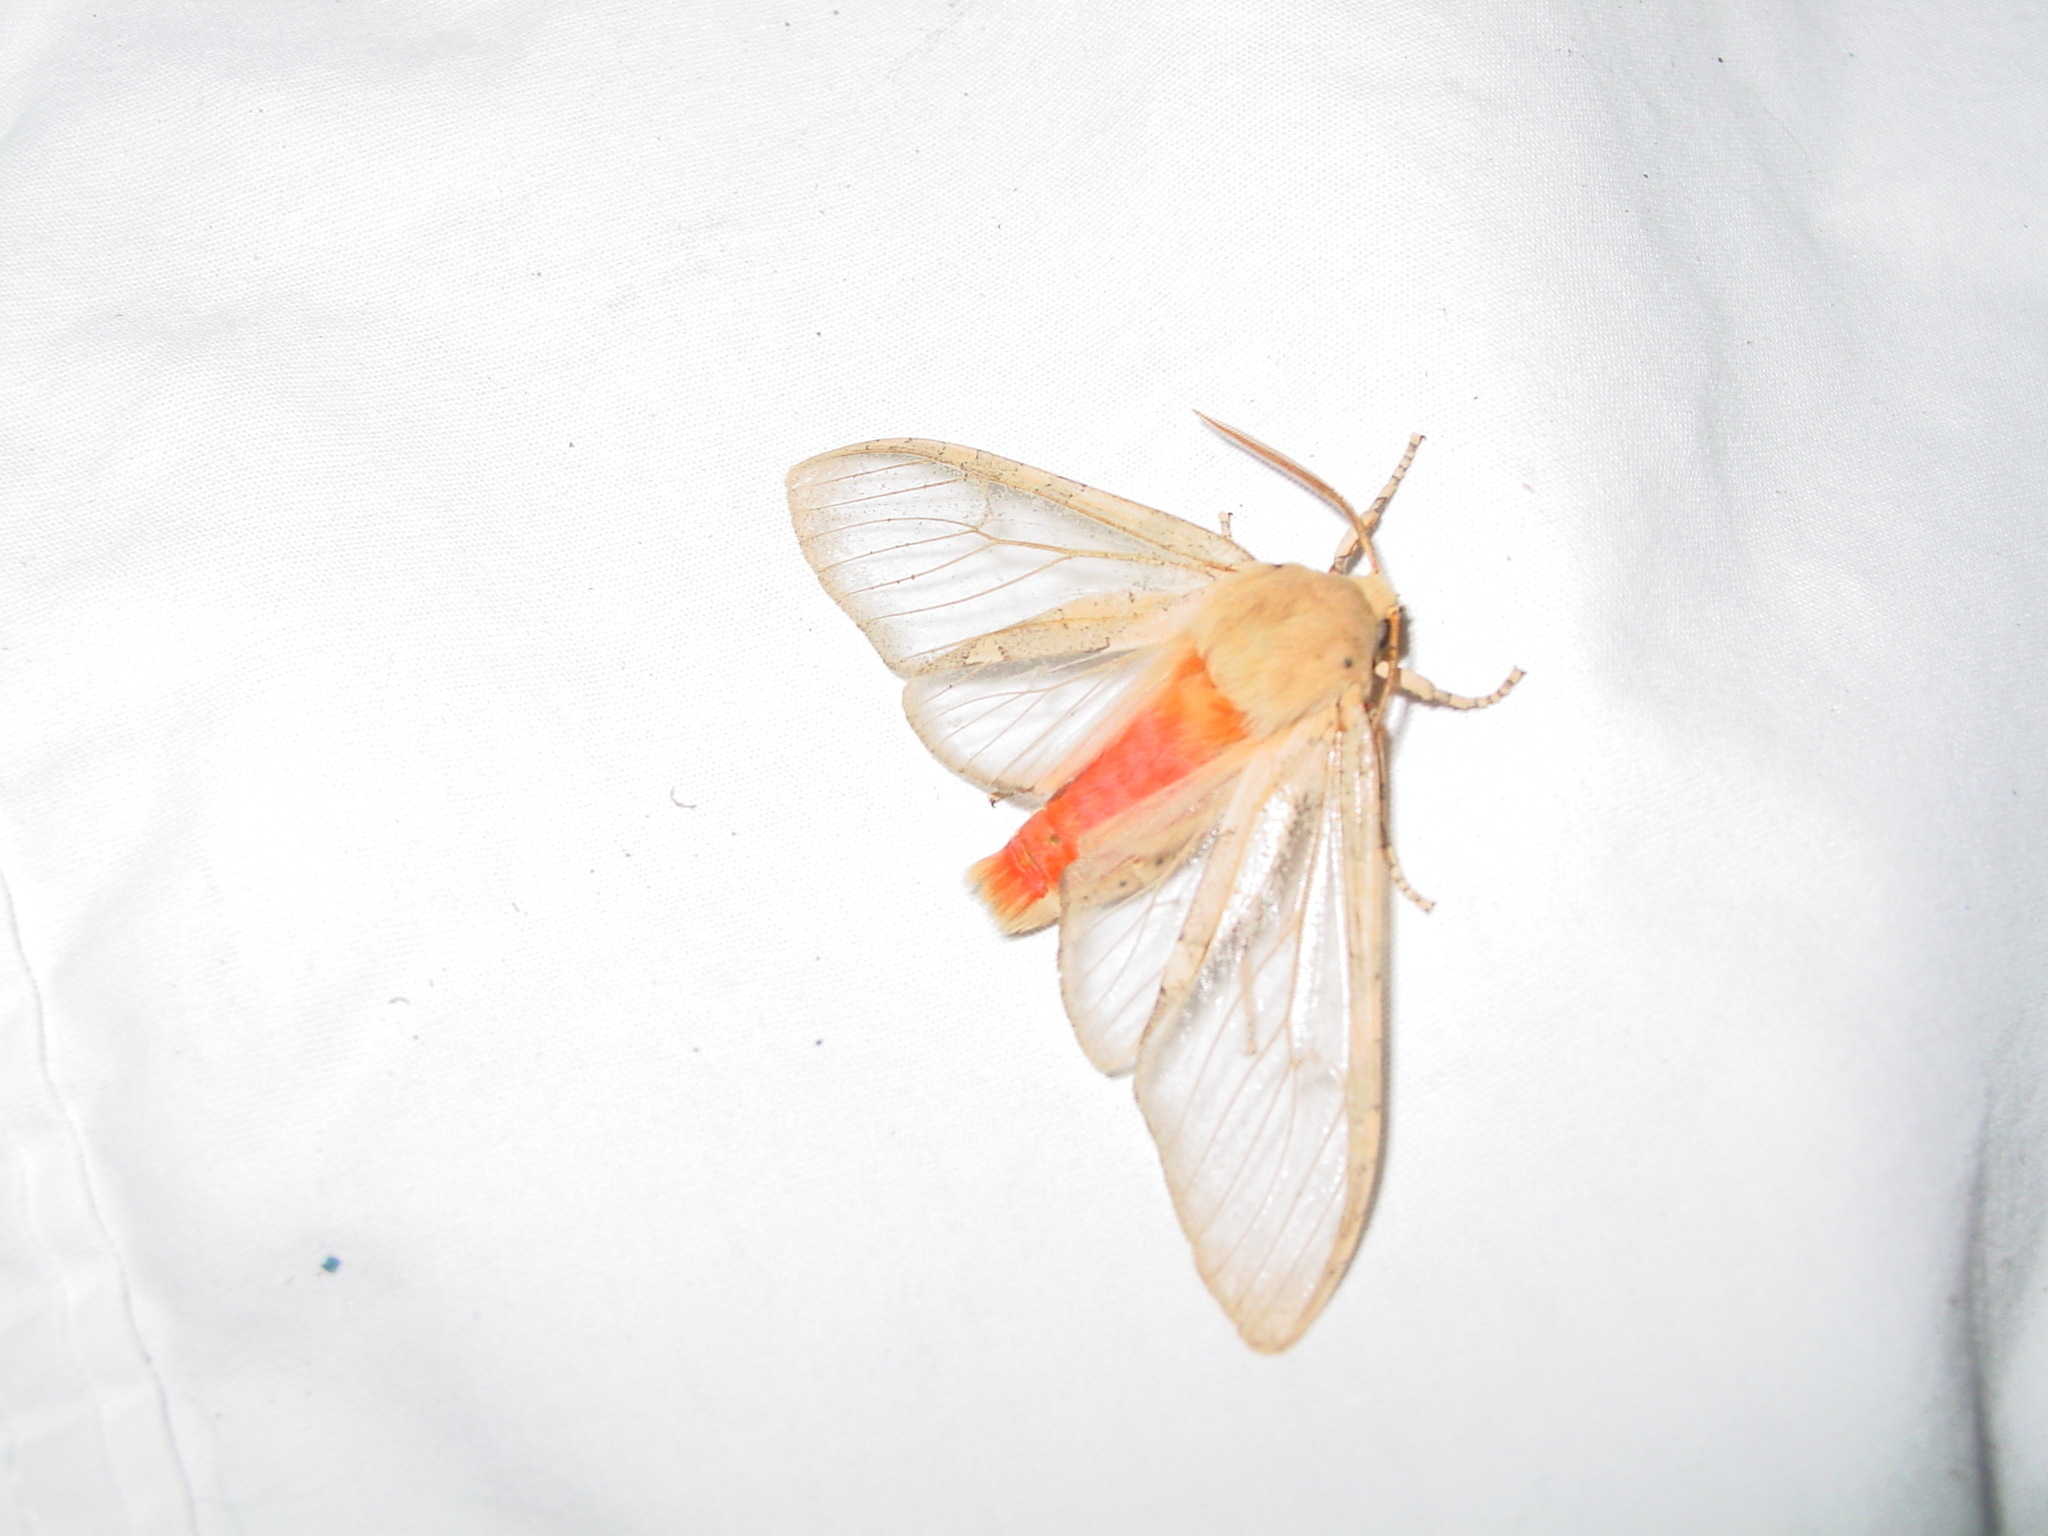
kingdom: Animalia
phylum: Arthropoda
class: Insecta
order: Lepidoptera
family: Erebidae
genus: Hemihyalea
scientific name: Hemihyalea edwardsii
